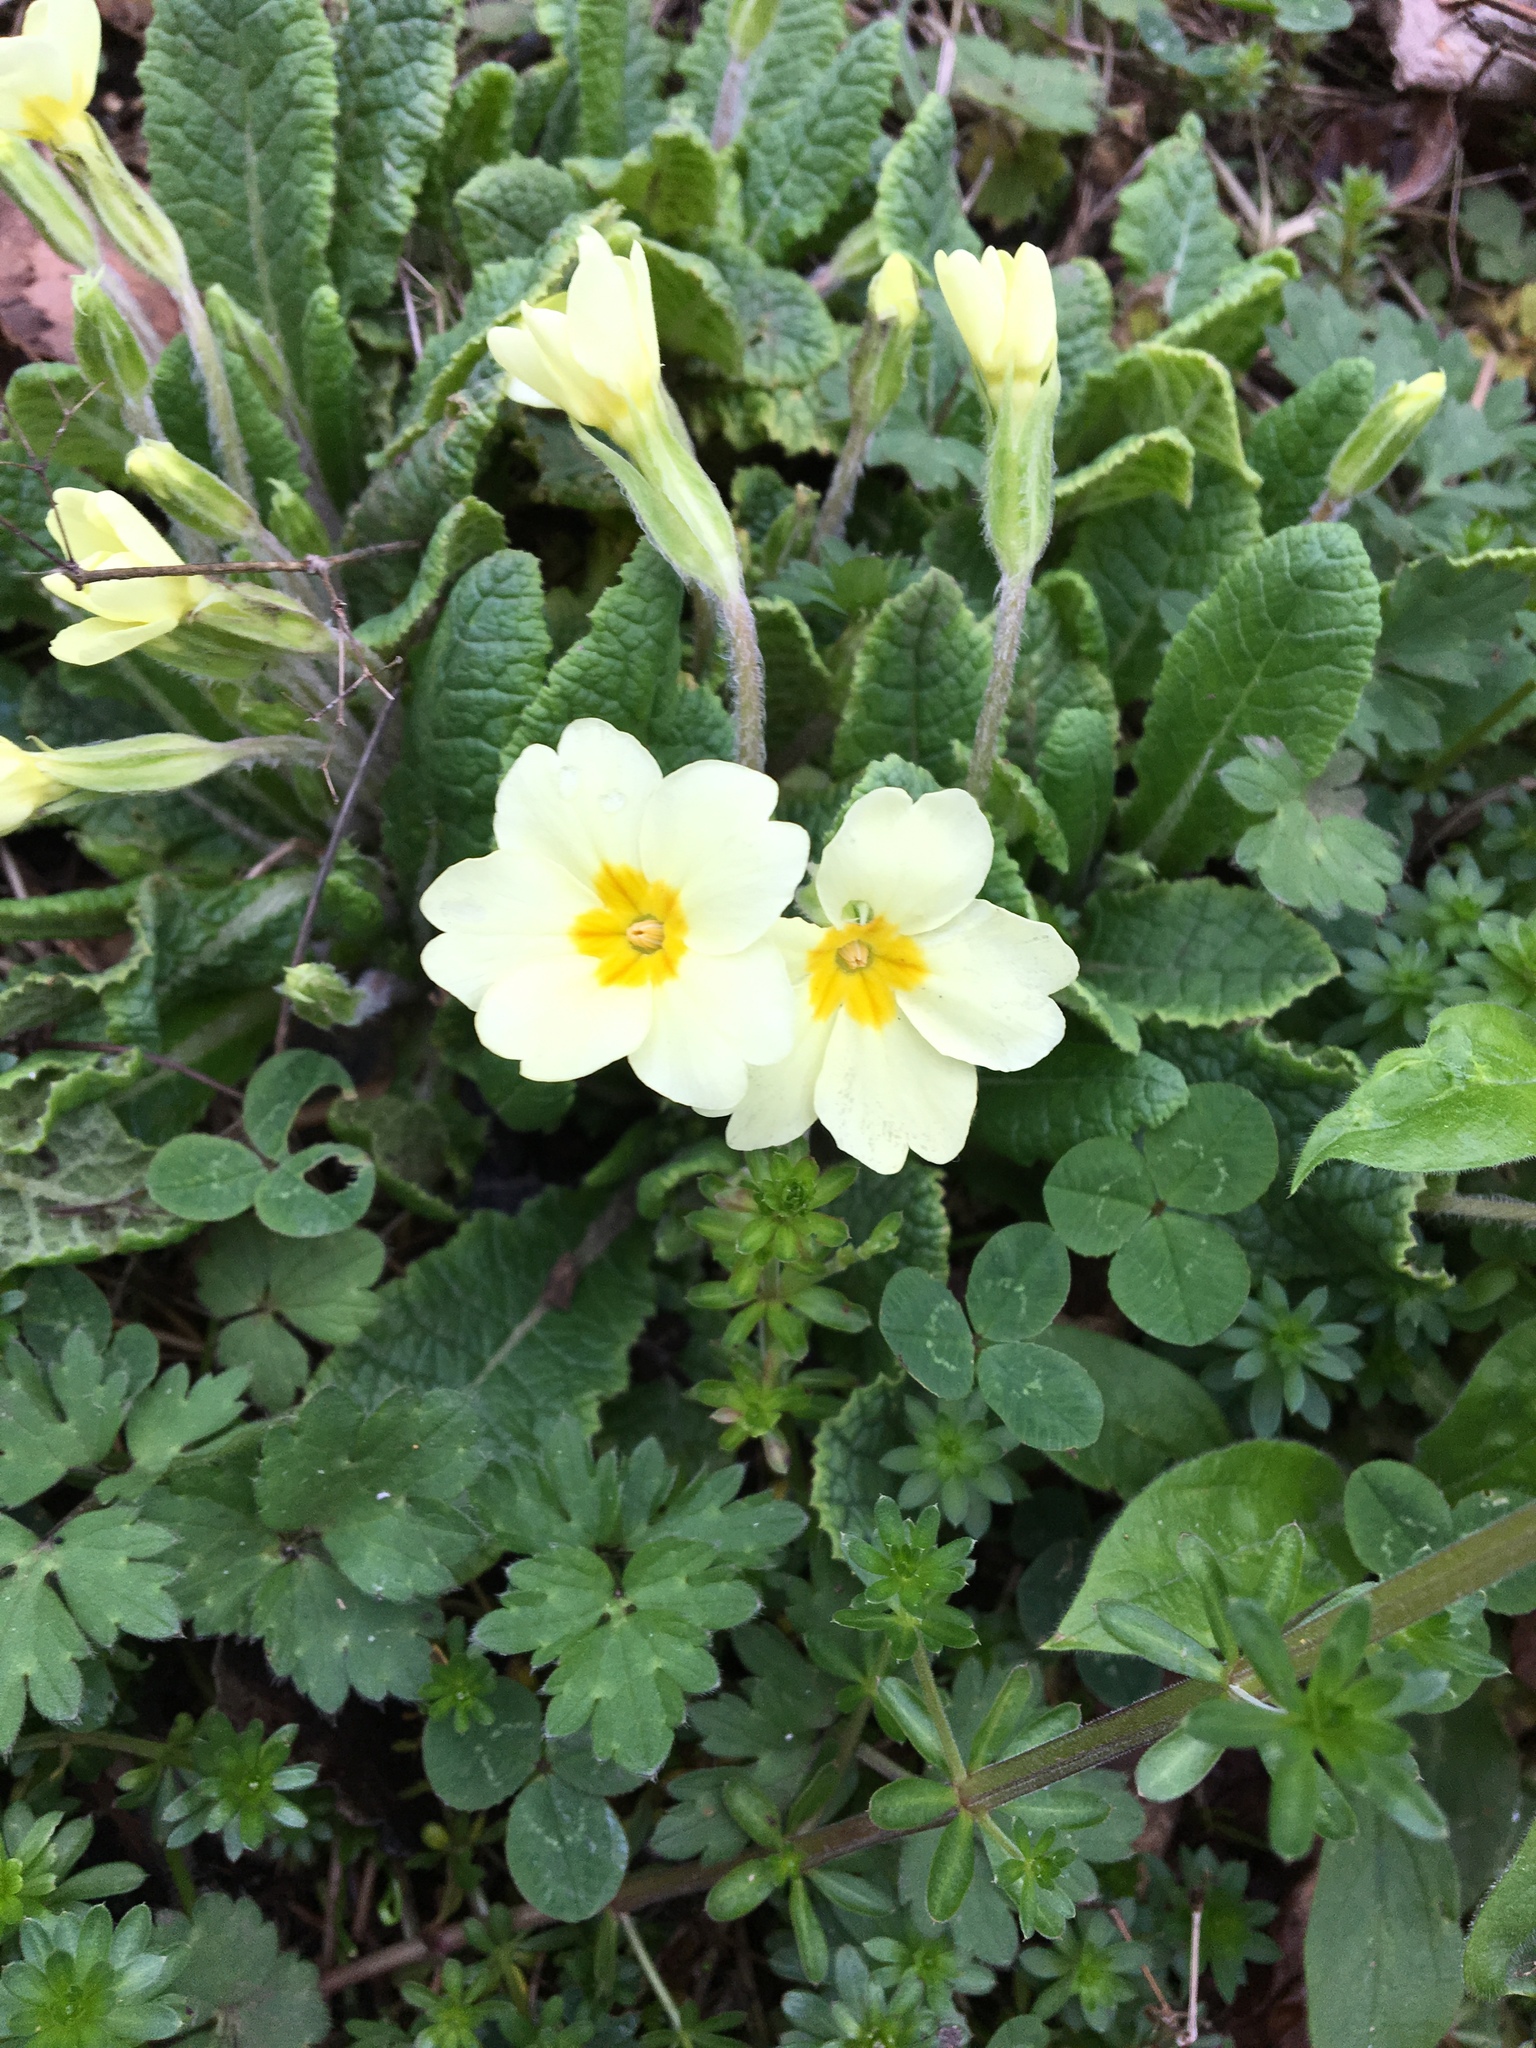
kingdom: Plantae
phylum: Tracheophyta
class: Magnoliopsida
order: Ericales
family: Primulaceae
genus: Primula
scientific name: Primula vulgaris
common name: Primrose
